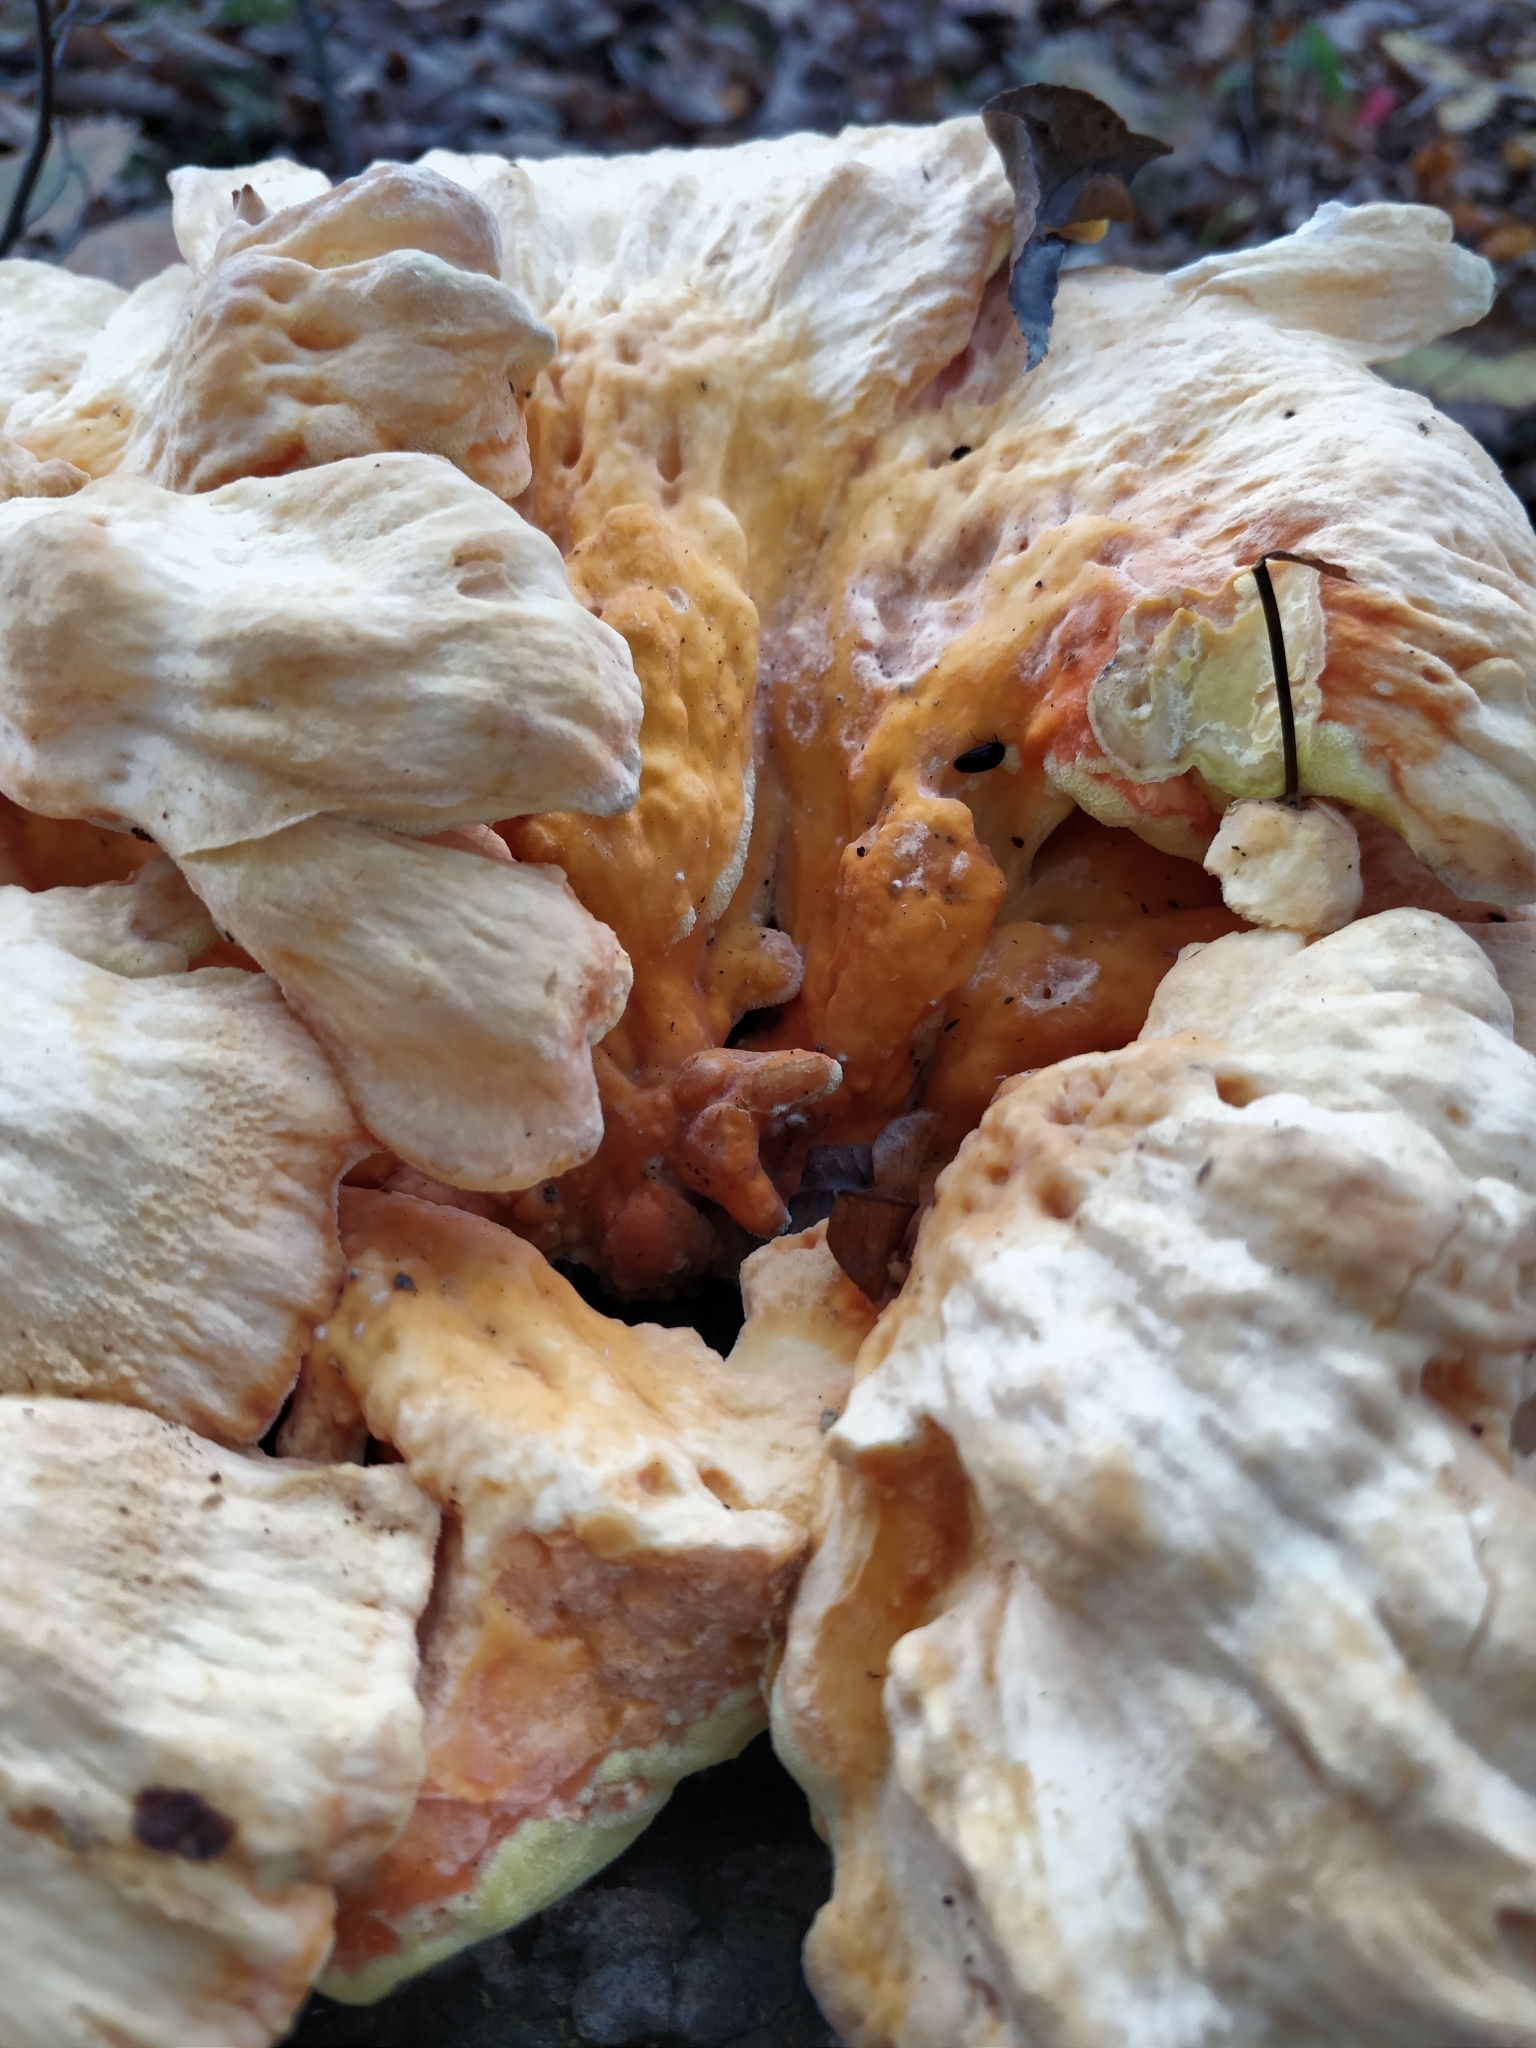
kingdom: Fungi
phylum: Basidiomycota
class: Agaricomycetes
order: Polyporales
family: Laetiporaceae
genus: Laetiporus
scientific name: Laetiporus sulphureus
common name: Chicken of the woods
